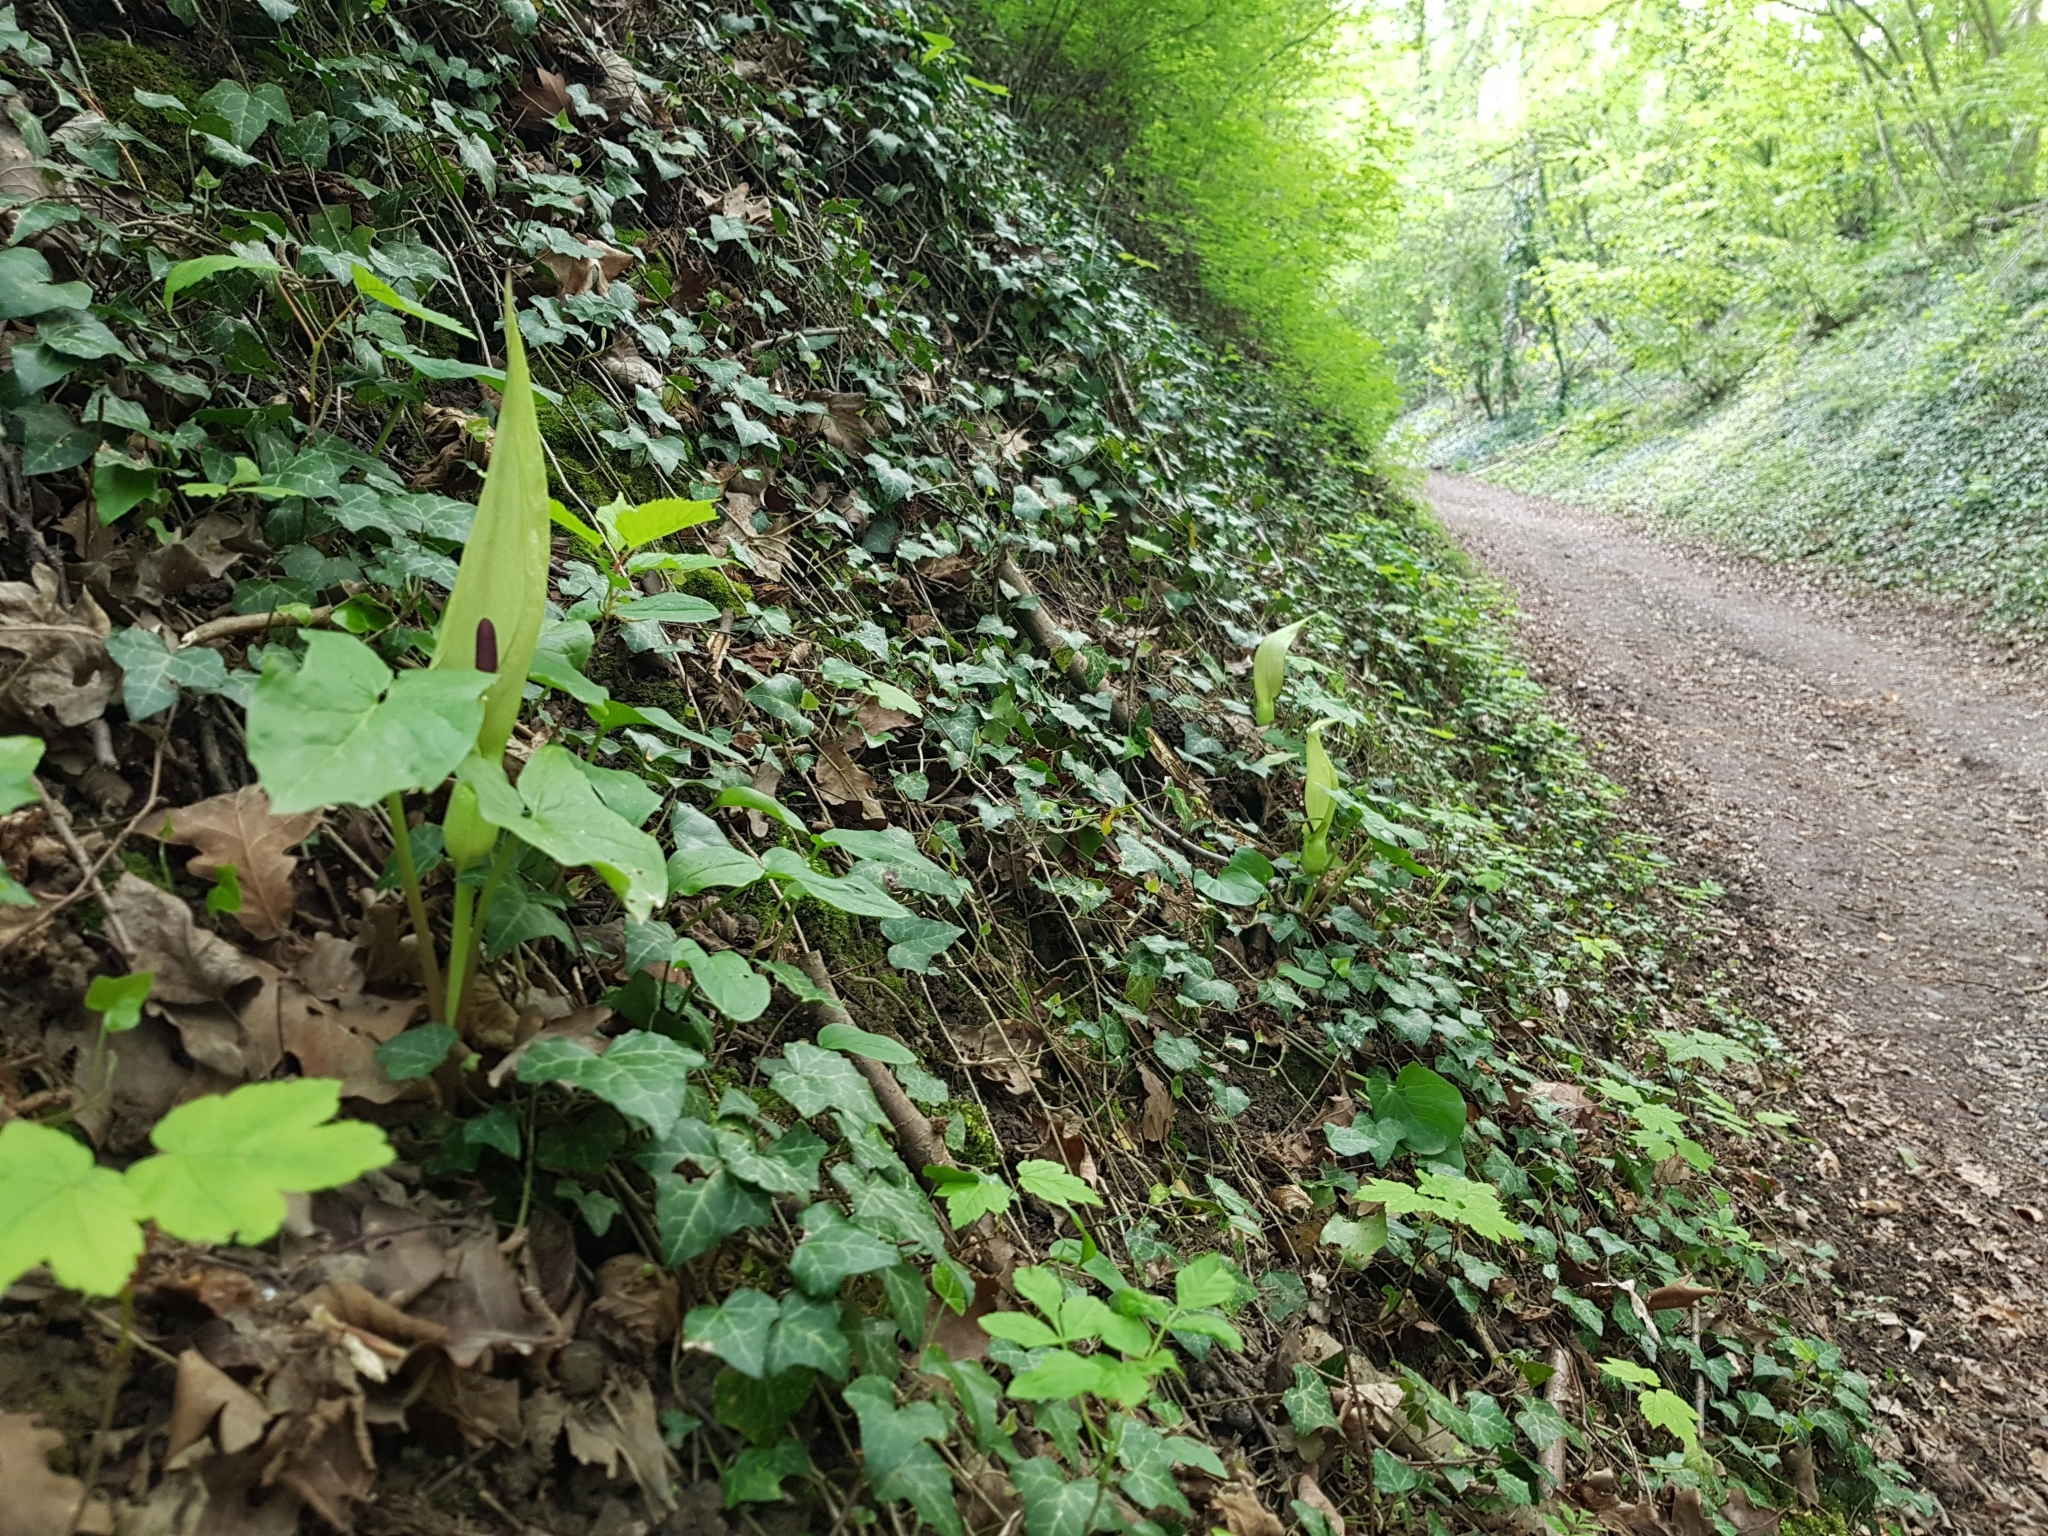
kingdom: Plantae
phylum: Tracheophyta
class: Liliopsida
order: Alismatales
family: Araceae
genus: Arum
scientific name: Arum maculatum
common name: Lords-and-ladies
